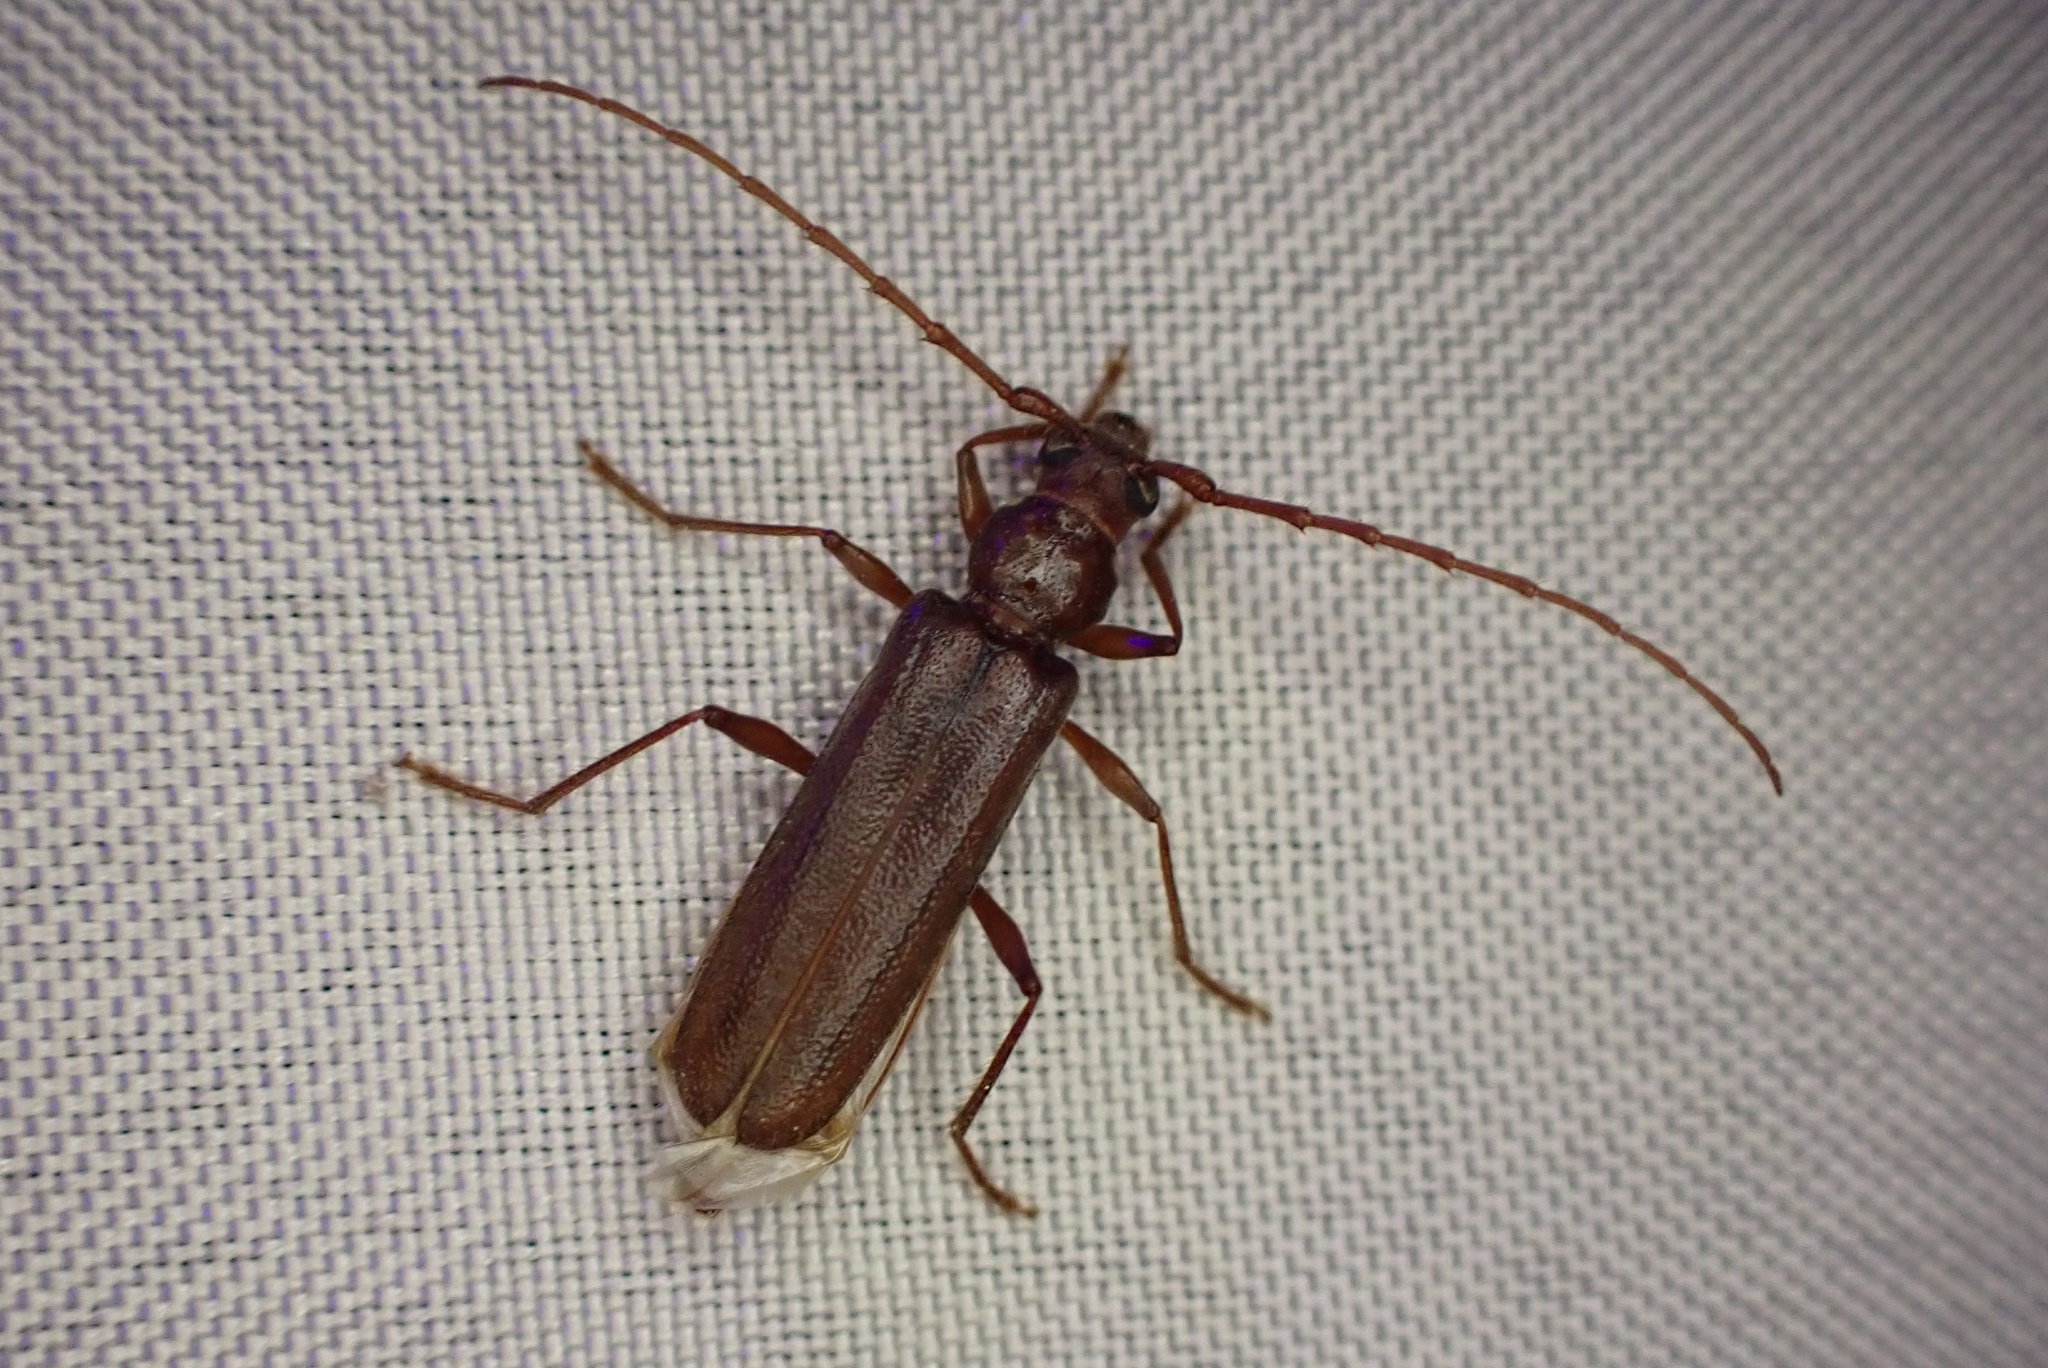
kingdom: Animalia
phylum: Arthropoda
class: Insecta
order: Coleoptera
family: Cerambycidae
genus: Eucrossus
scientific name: Eucrossus villicornis
